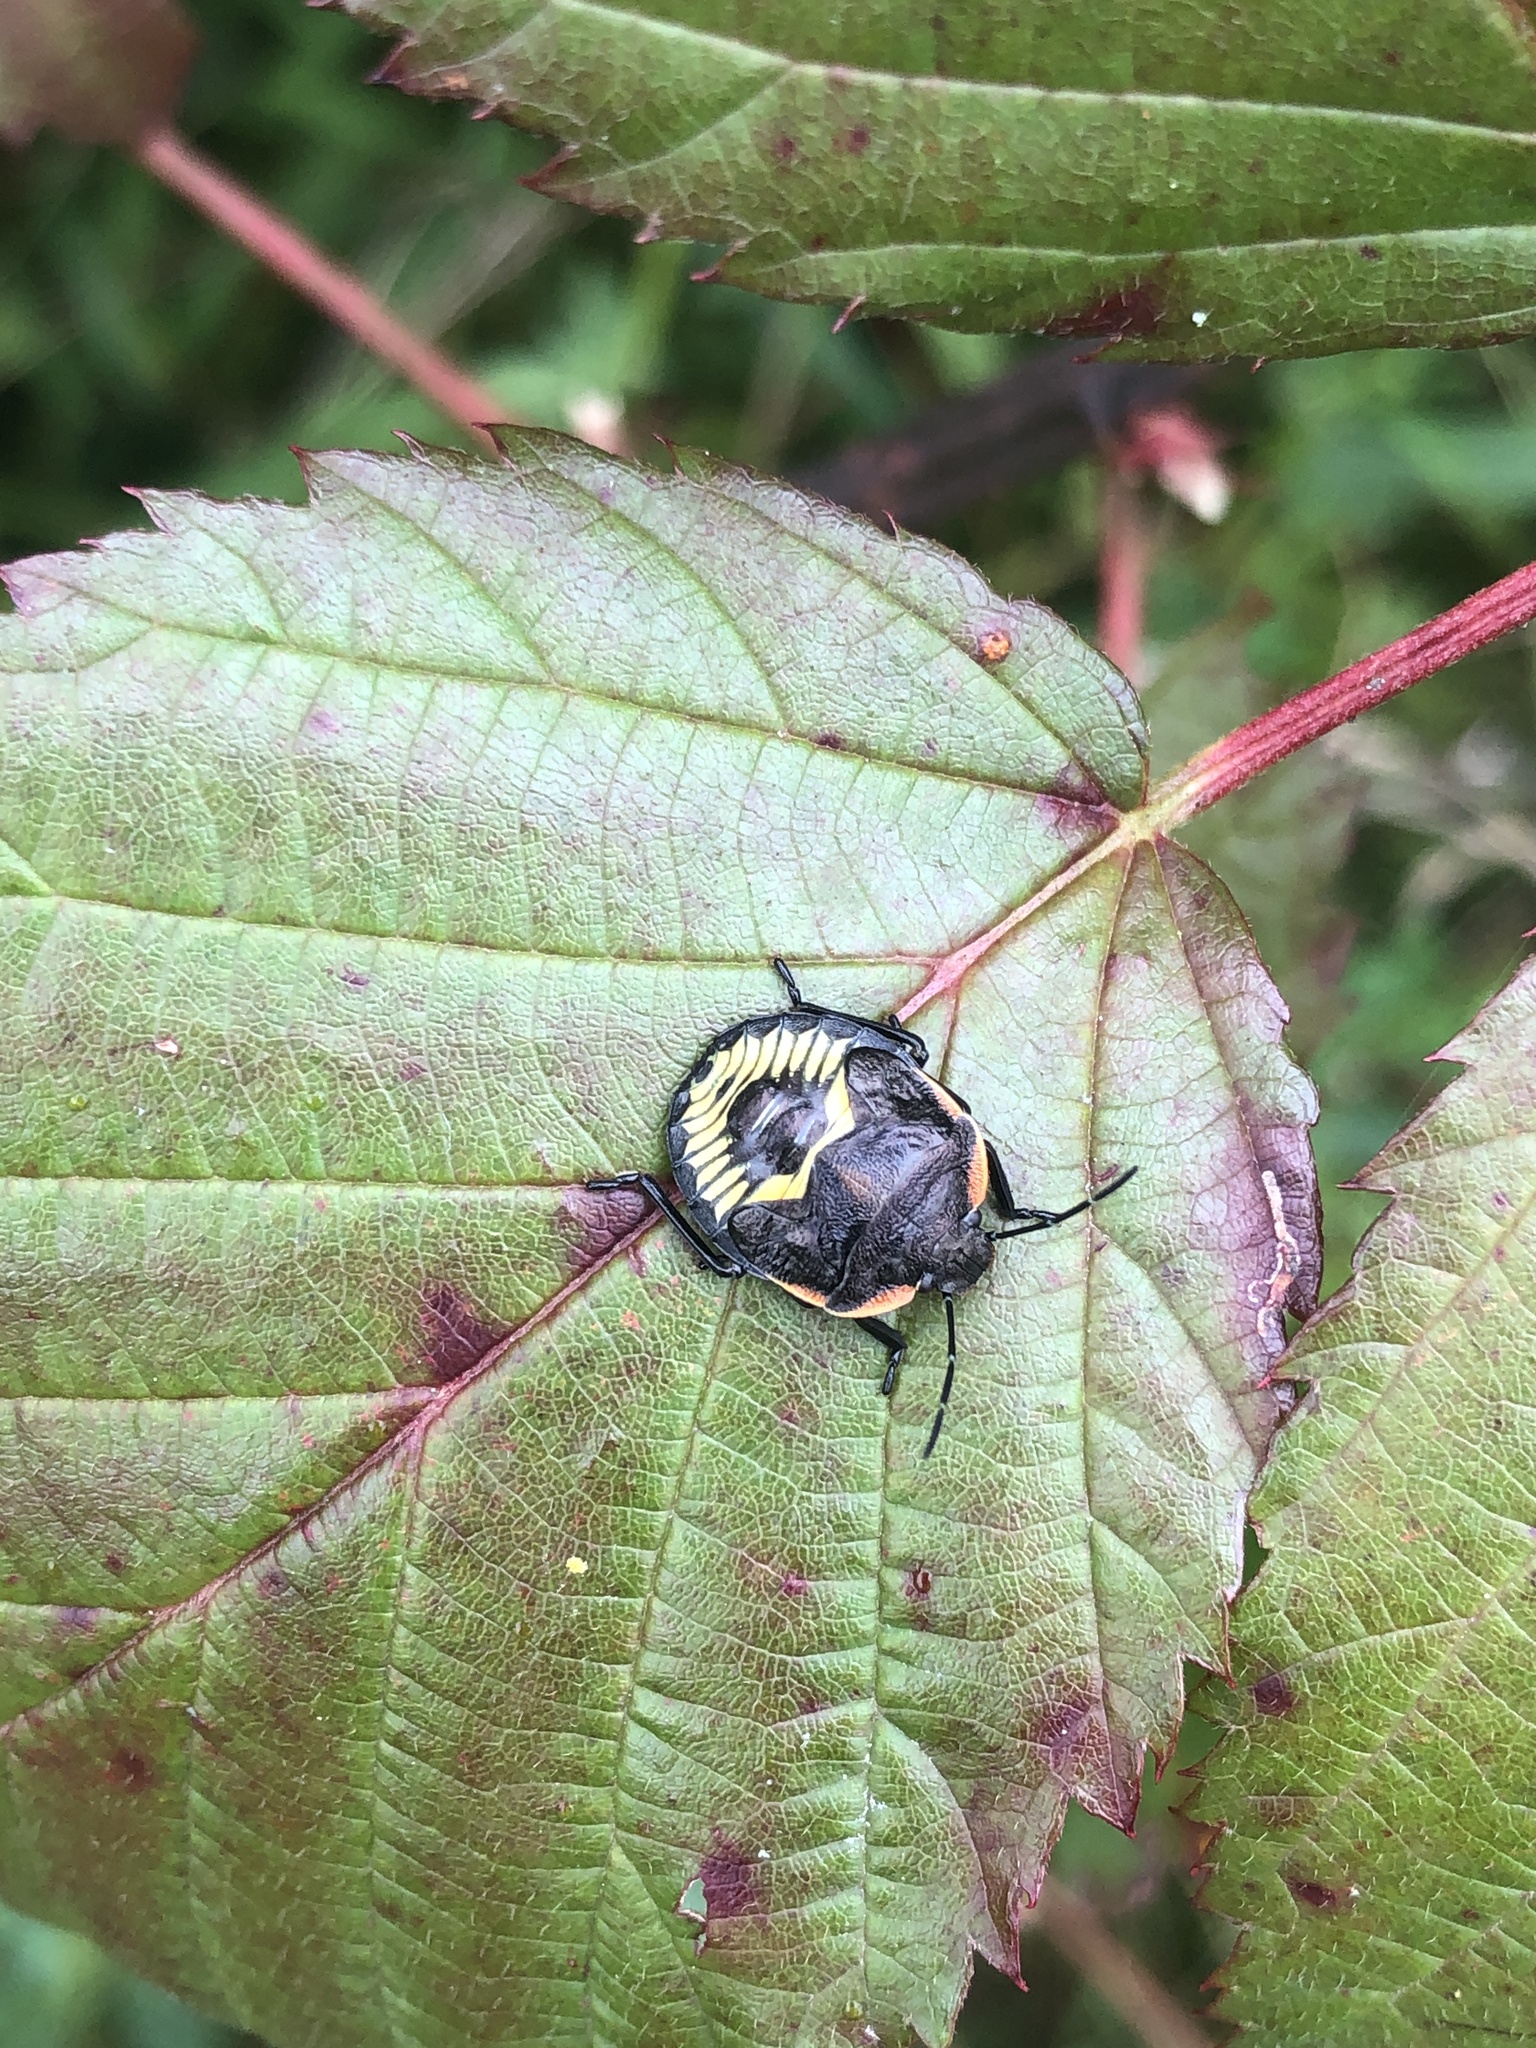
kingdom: Animalia
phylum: Arthropoda
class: Insecta
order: Hemiptera
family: Pentatomidae
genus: Chinavia
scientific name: Chinavia hilaris
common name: Green stink bug
